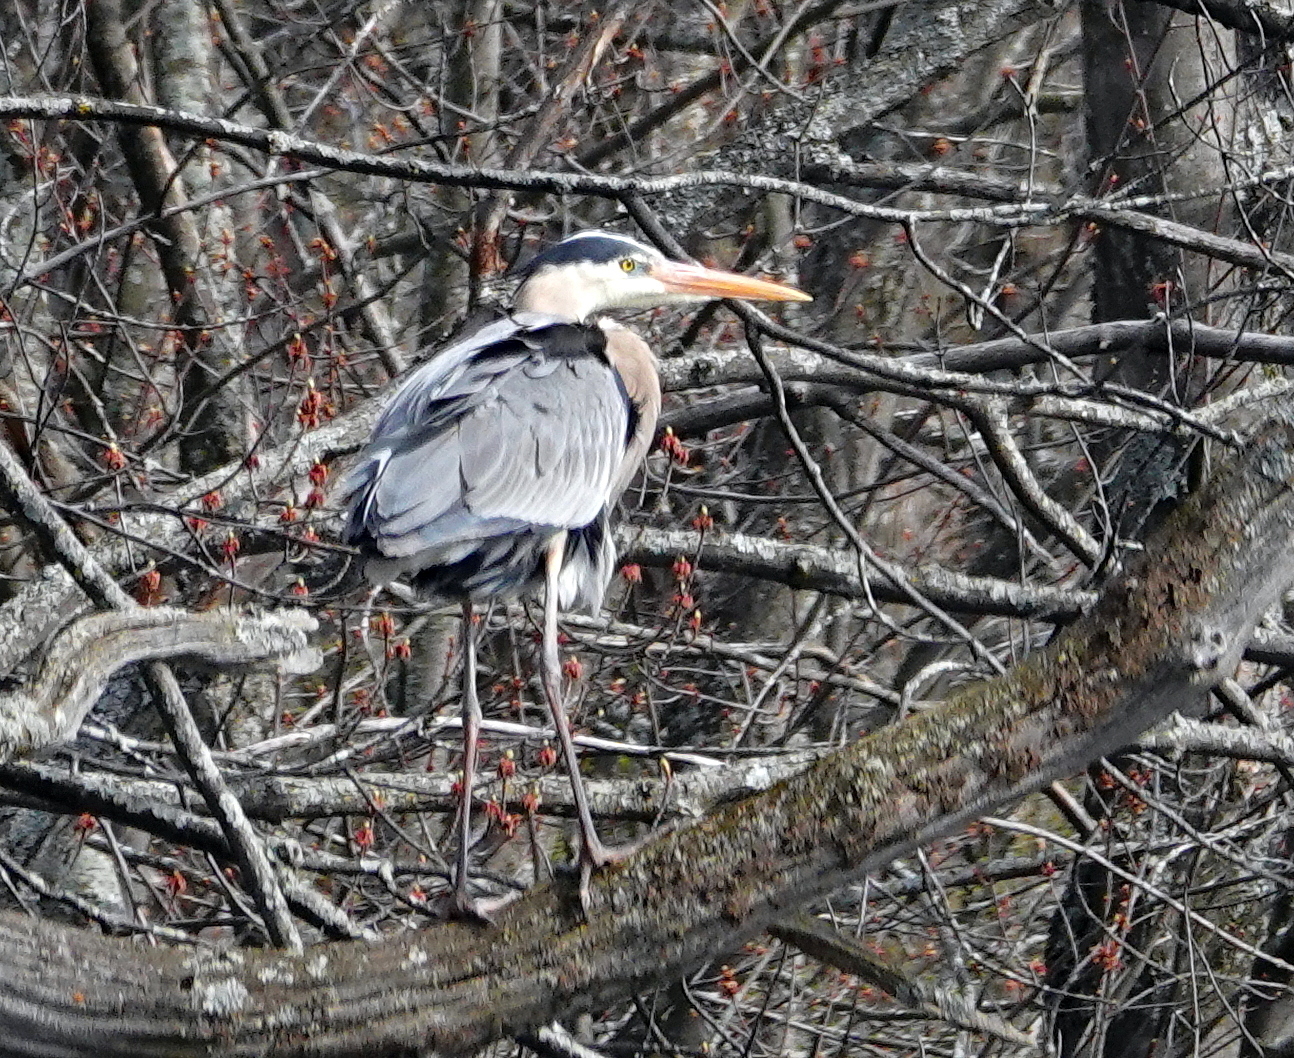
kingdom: Animalia
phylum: Chordata
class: Aves
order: Pelecaniformes
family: Ardeidae
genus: Ardea
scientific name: Ardea herodias
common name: Great blue heron
